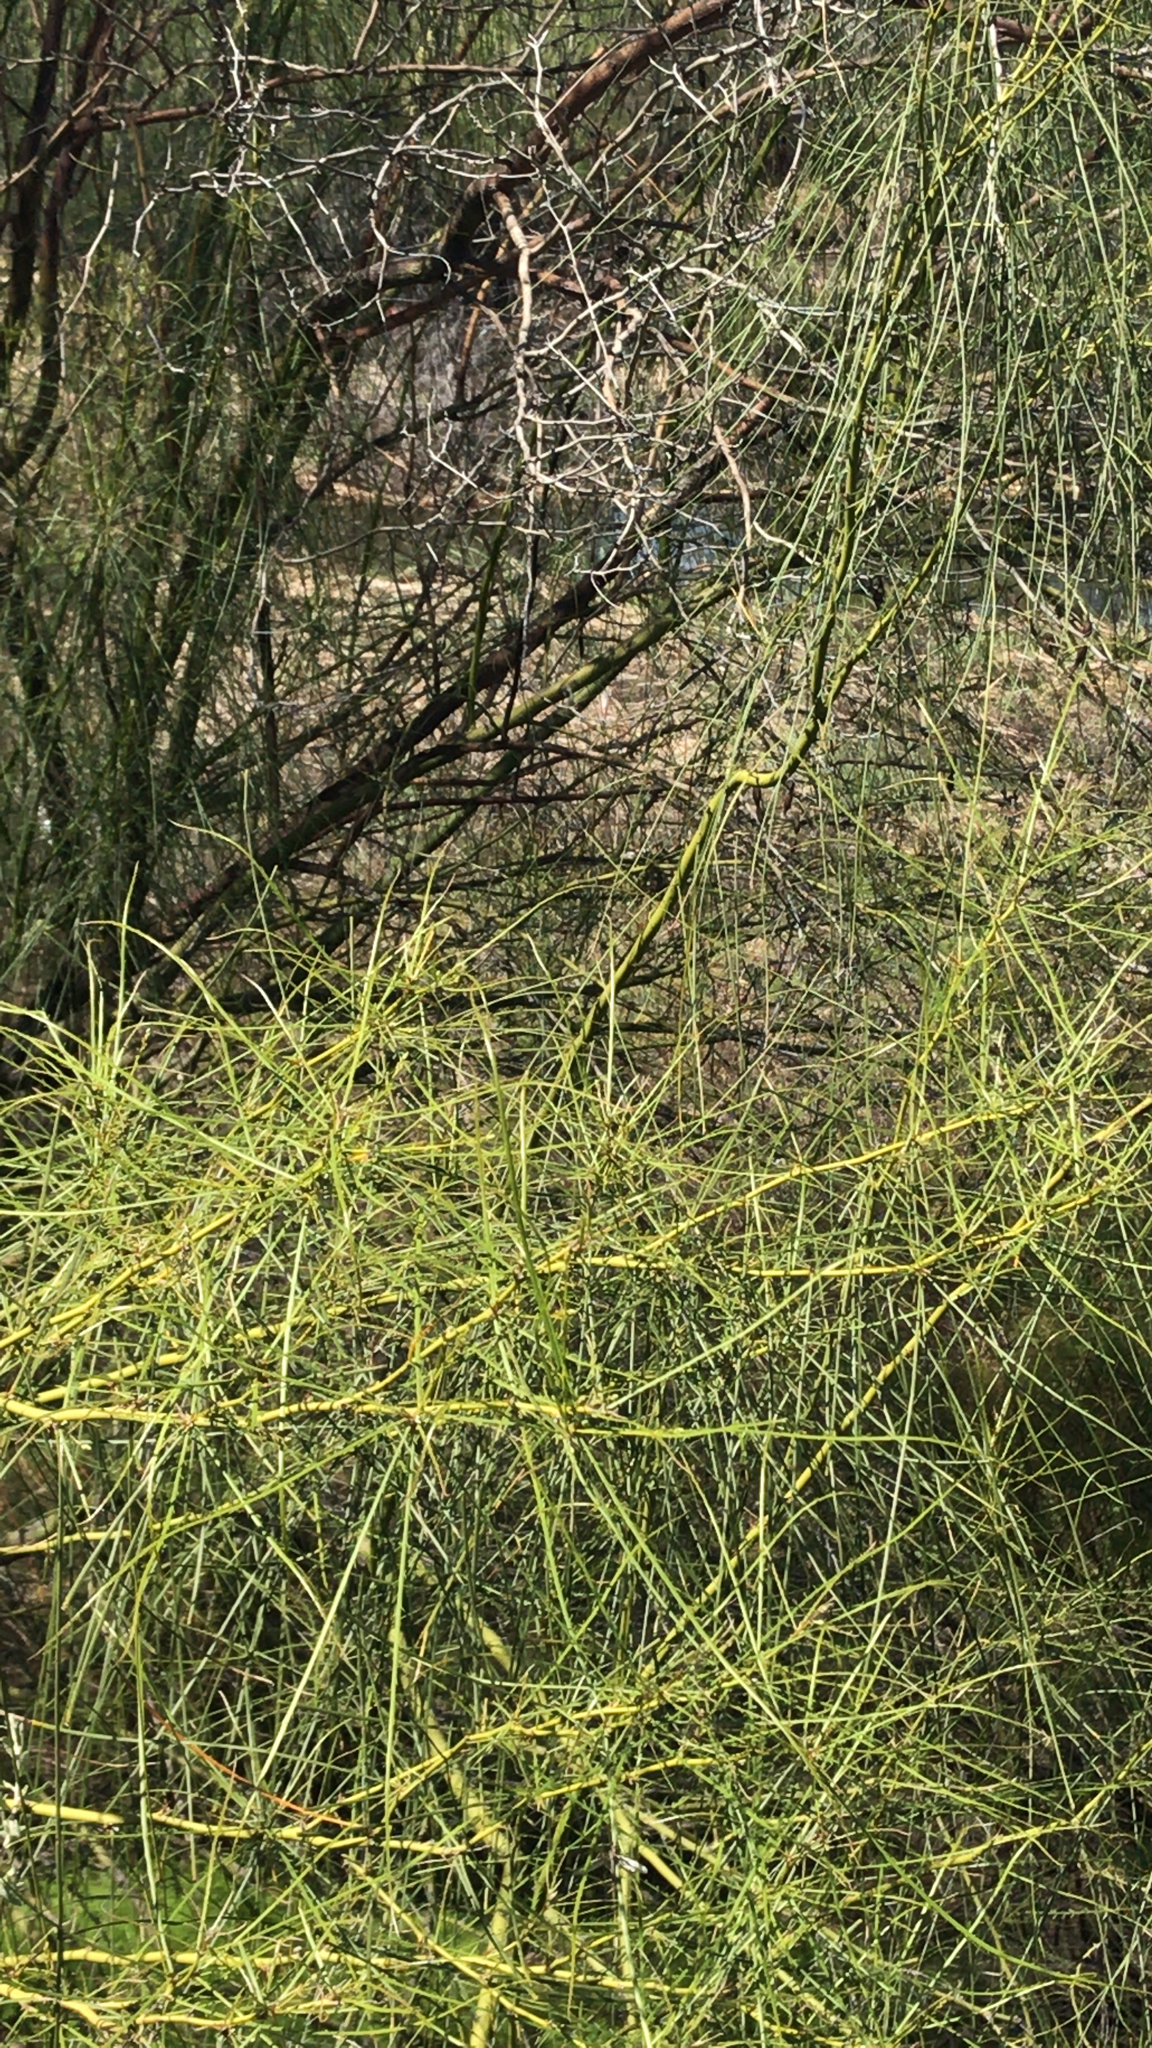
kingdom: Plantae
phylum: Tracheophyta
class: Magnoliopsida
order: Fabales
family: Fabaceae
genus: Parkinsonia
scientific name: Parkinsonia aculeata
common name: Jerusalem thorn
